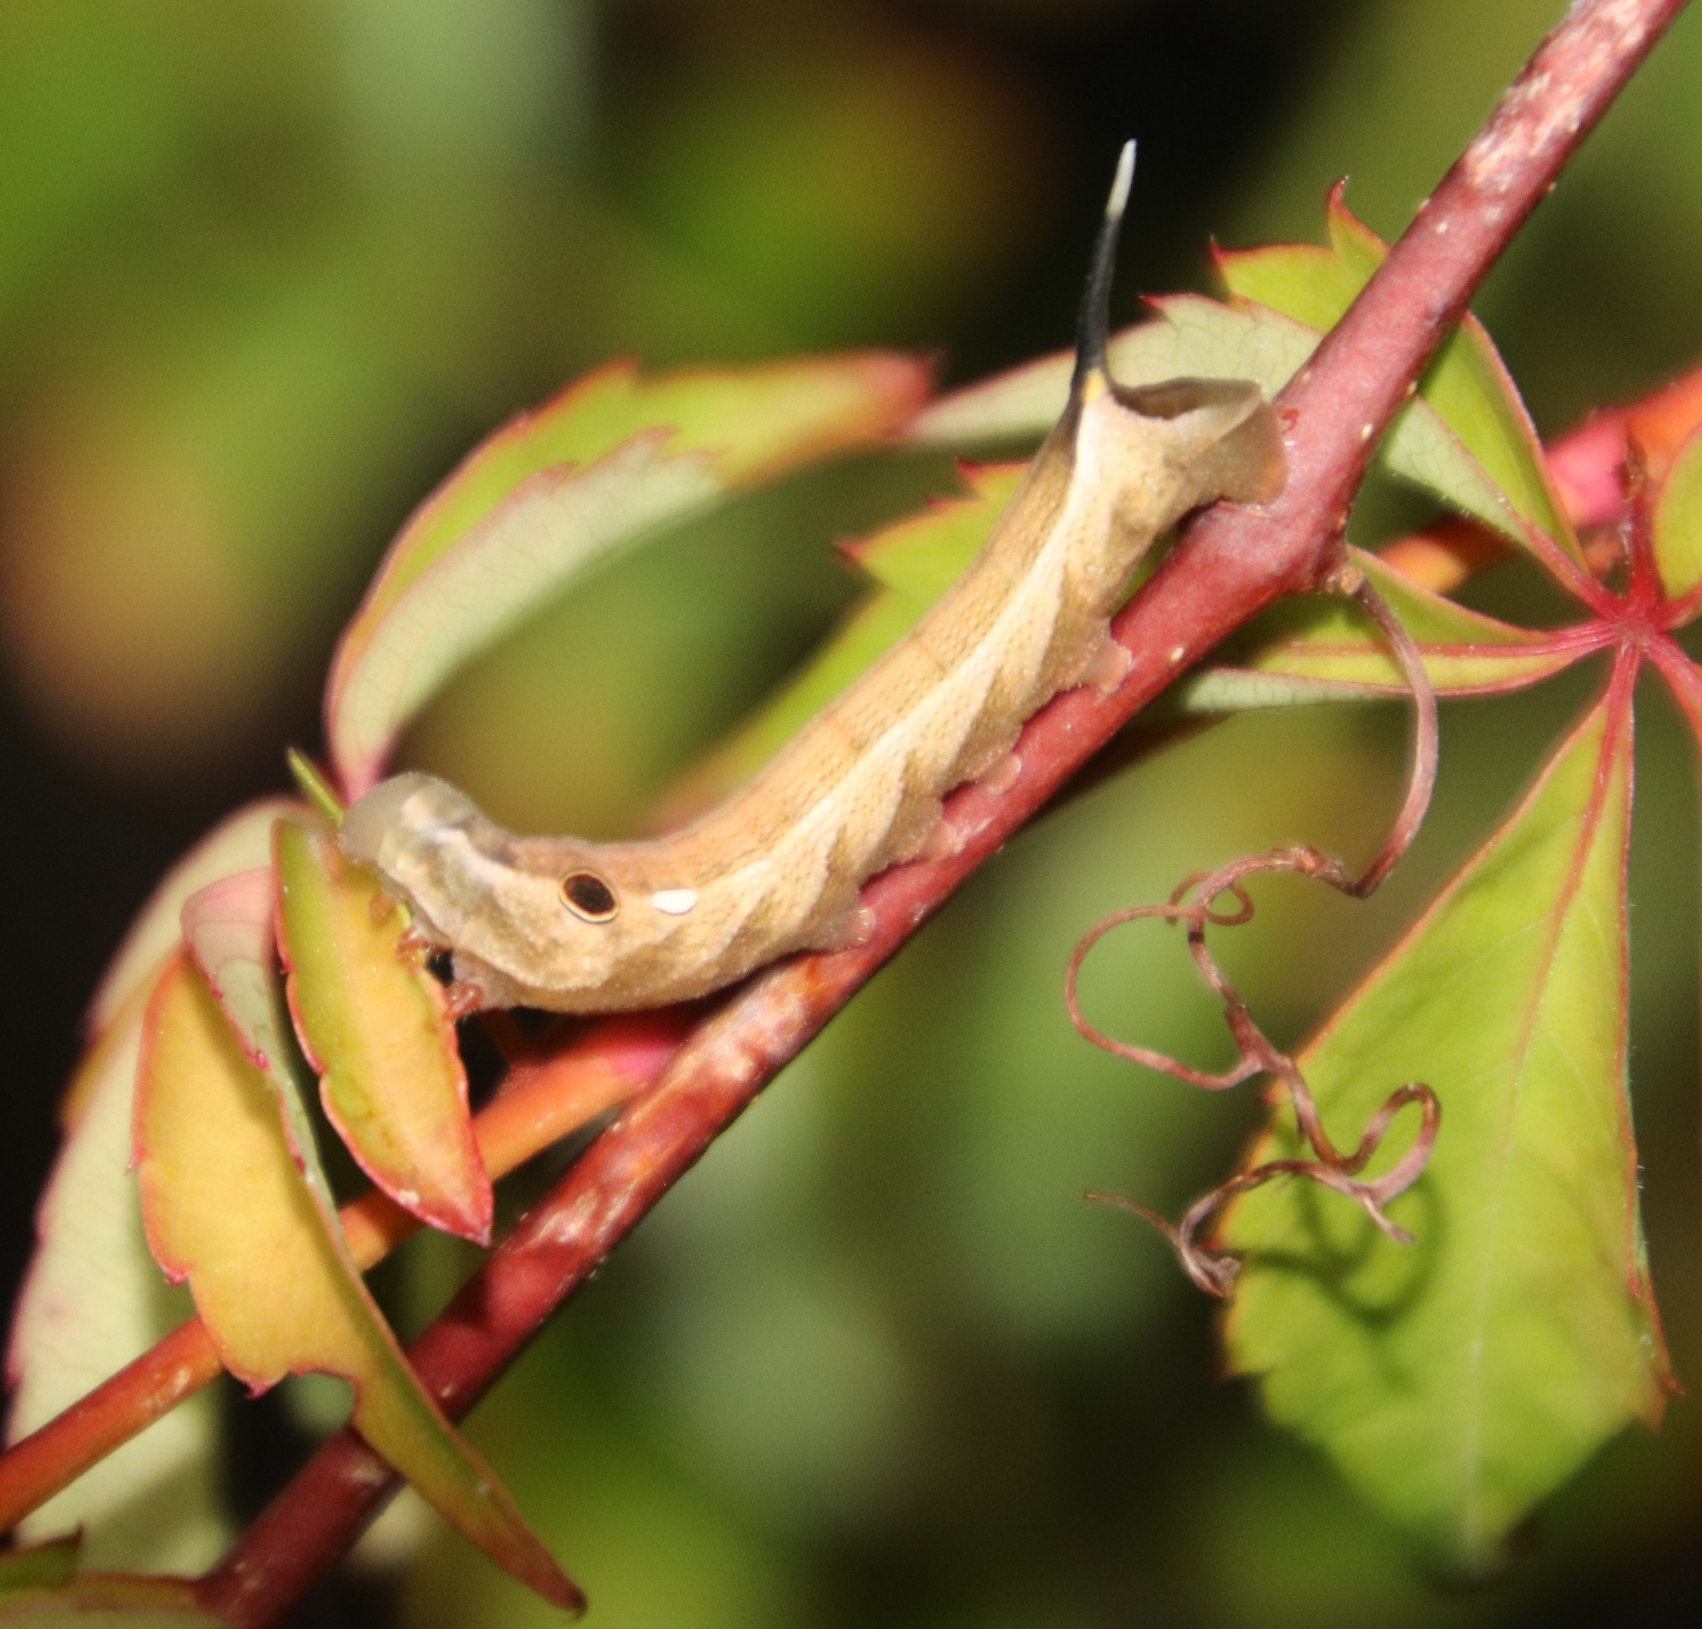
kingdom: Animalia
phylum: Arthropoda
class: Insecta
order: Lepidoptera
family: Sphingidae
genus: Hippotion
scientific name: Hippotion eson
